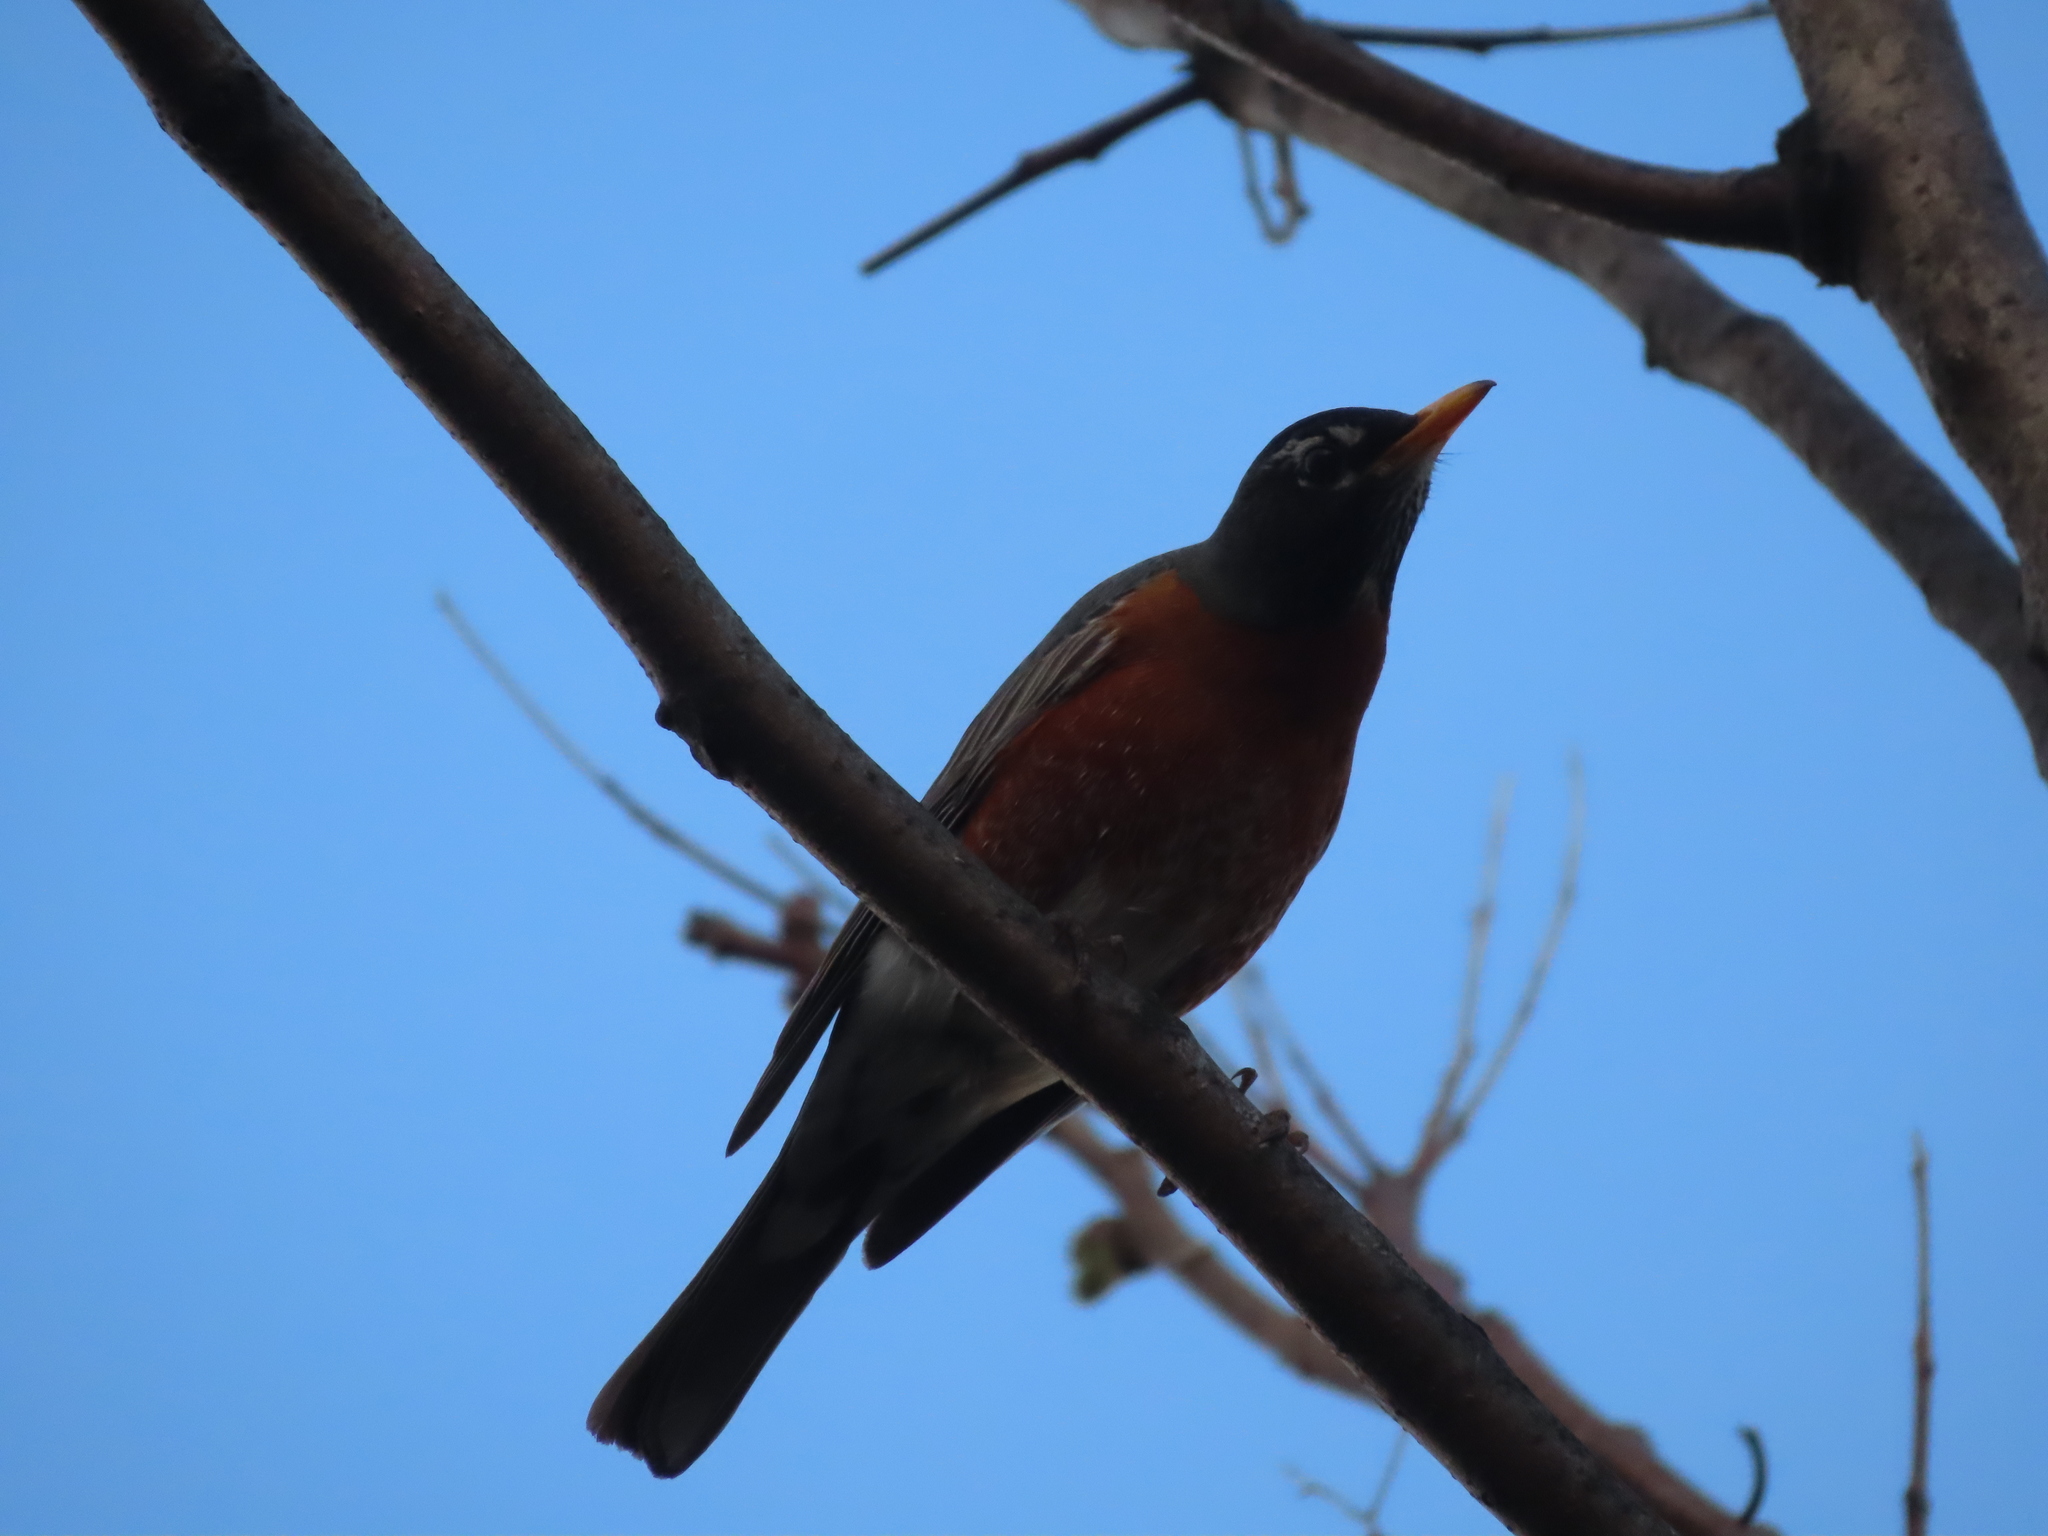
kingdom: Animalia
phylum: Chordata
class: Aves
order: Passeriformes
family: Turdidae
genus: Turdus
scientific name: Turdus migratorius
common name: American robin
